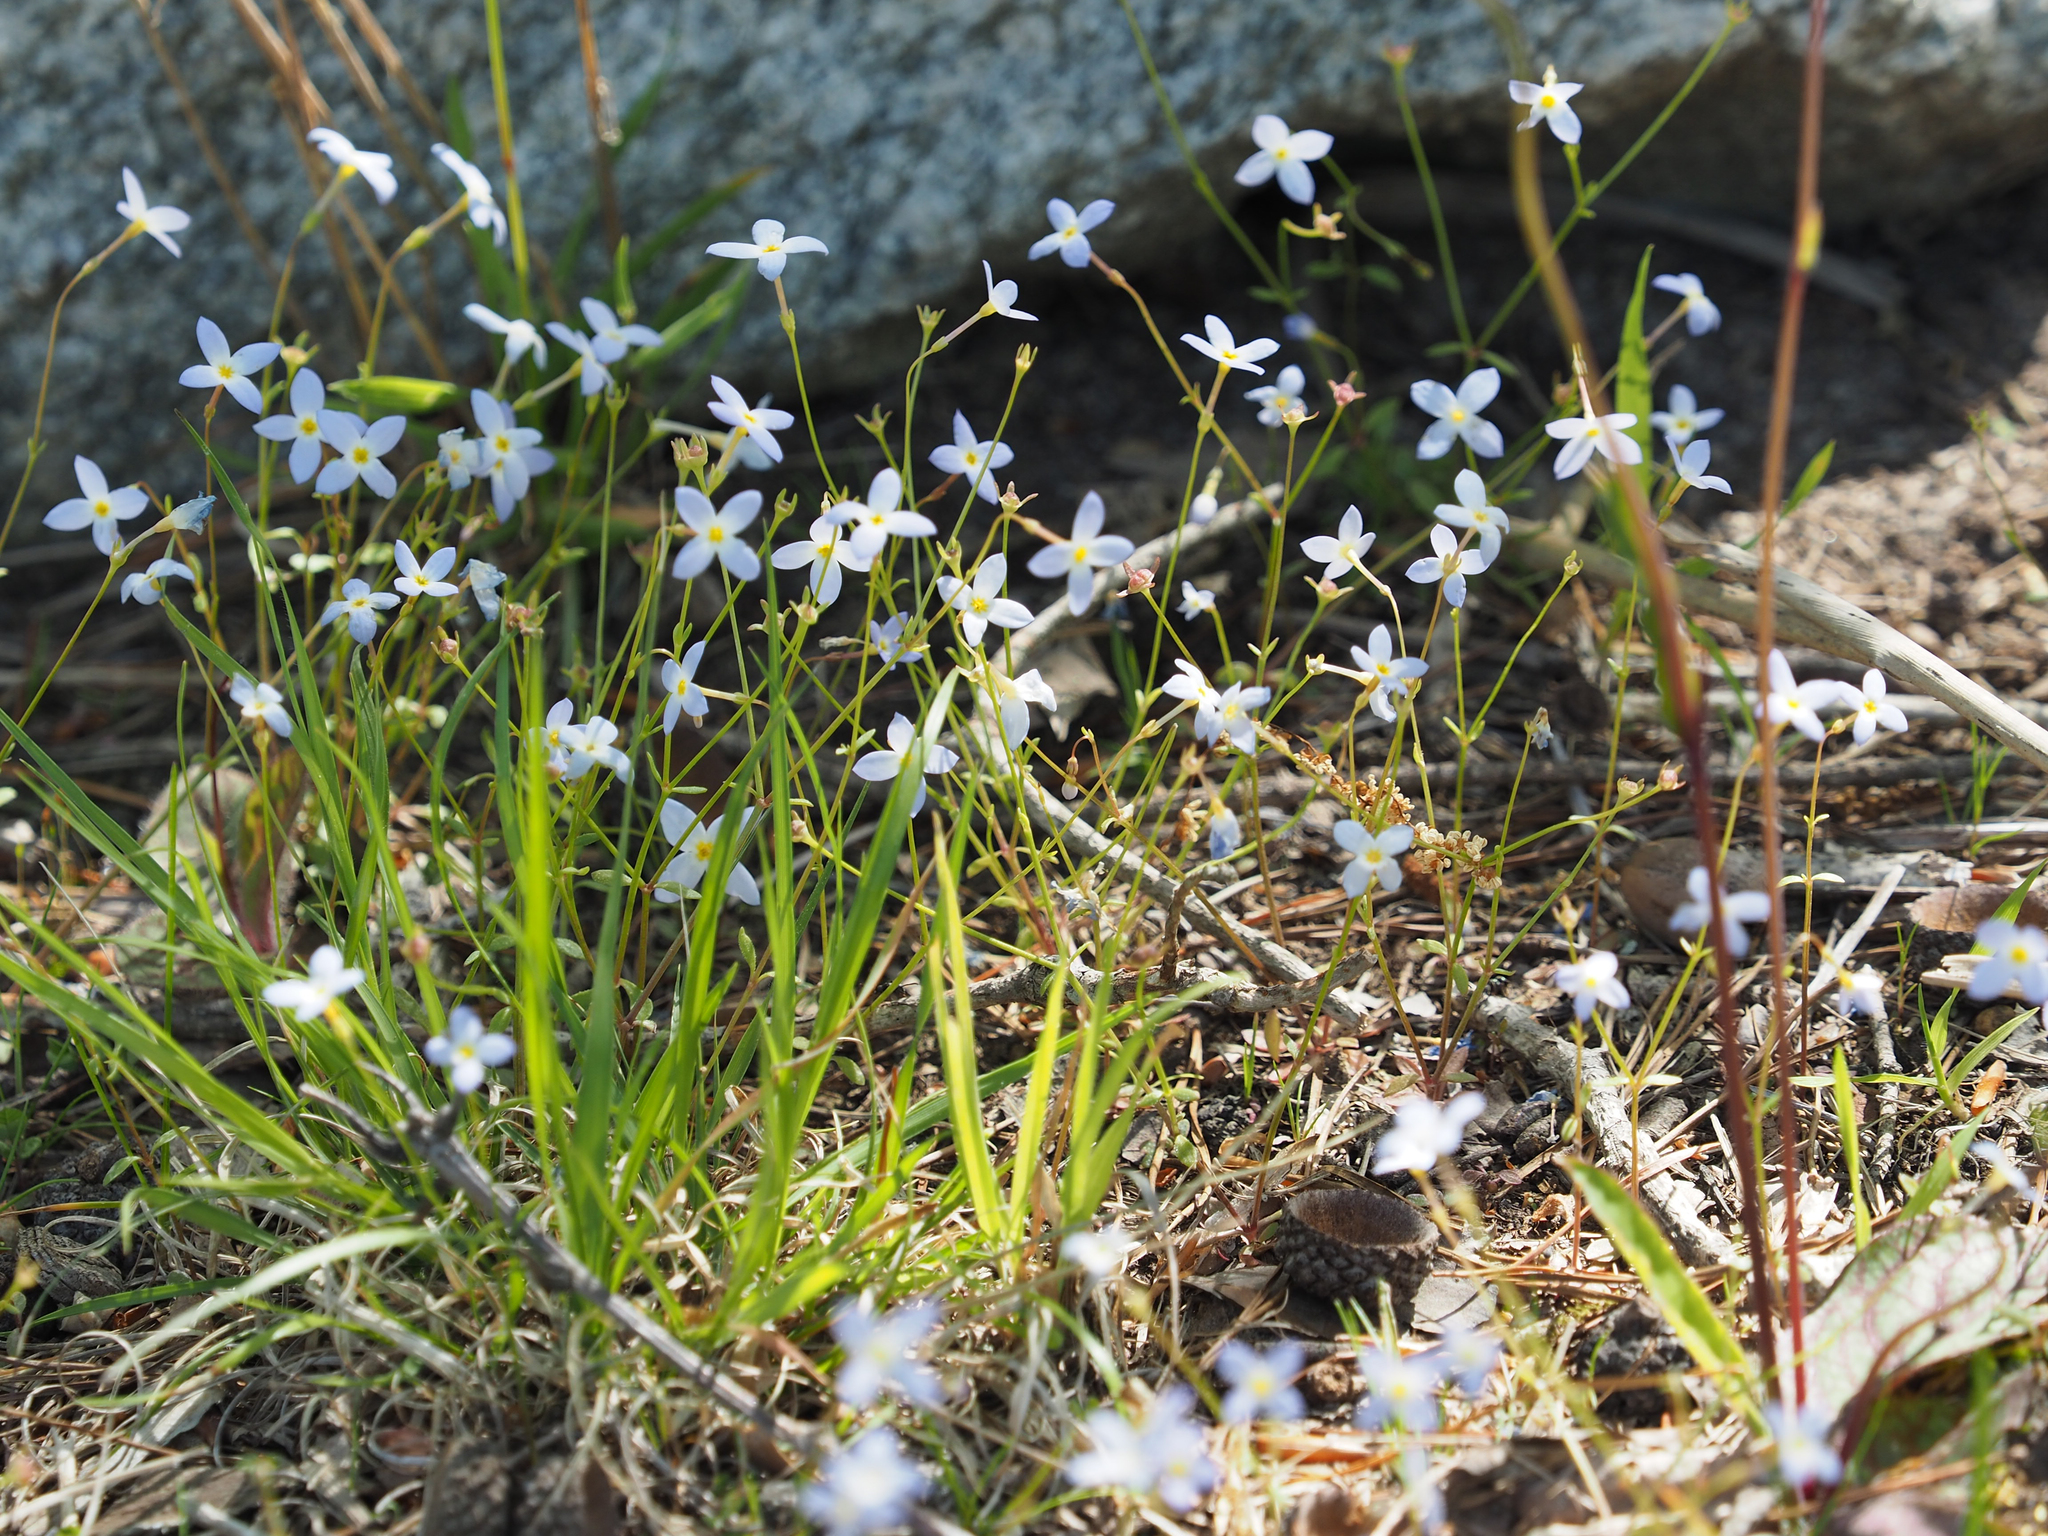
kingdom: Plantae
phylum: Tracheophyta
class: Magnoliopsida
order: Gentianales
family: Rubiaceae
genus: Houstonia
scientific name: Houstonia caerulea
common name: Bluets
